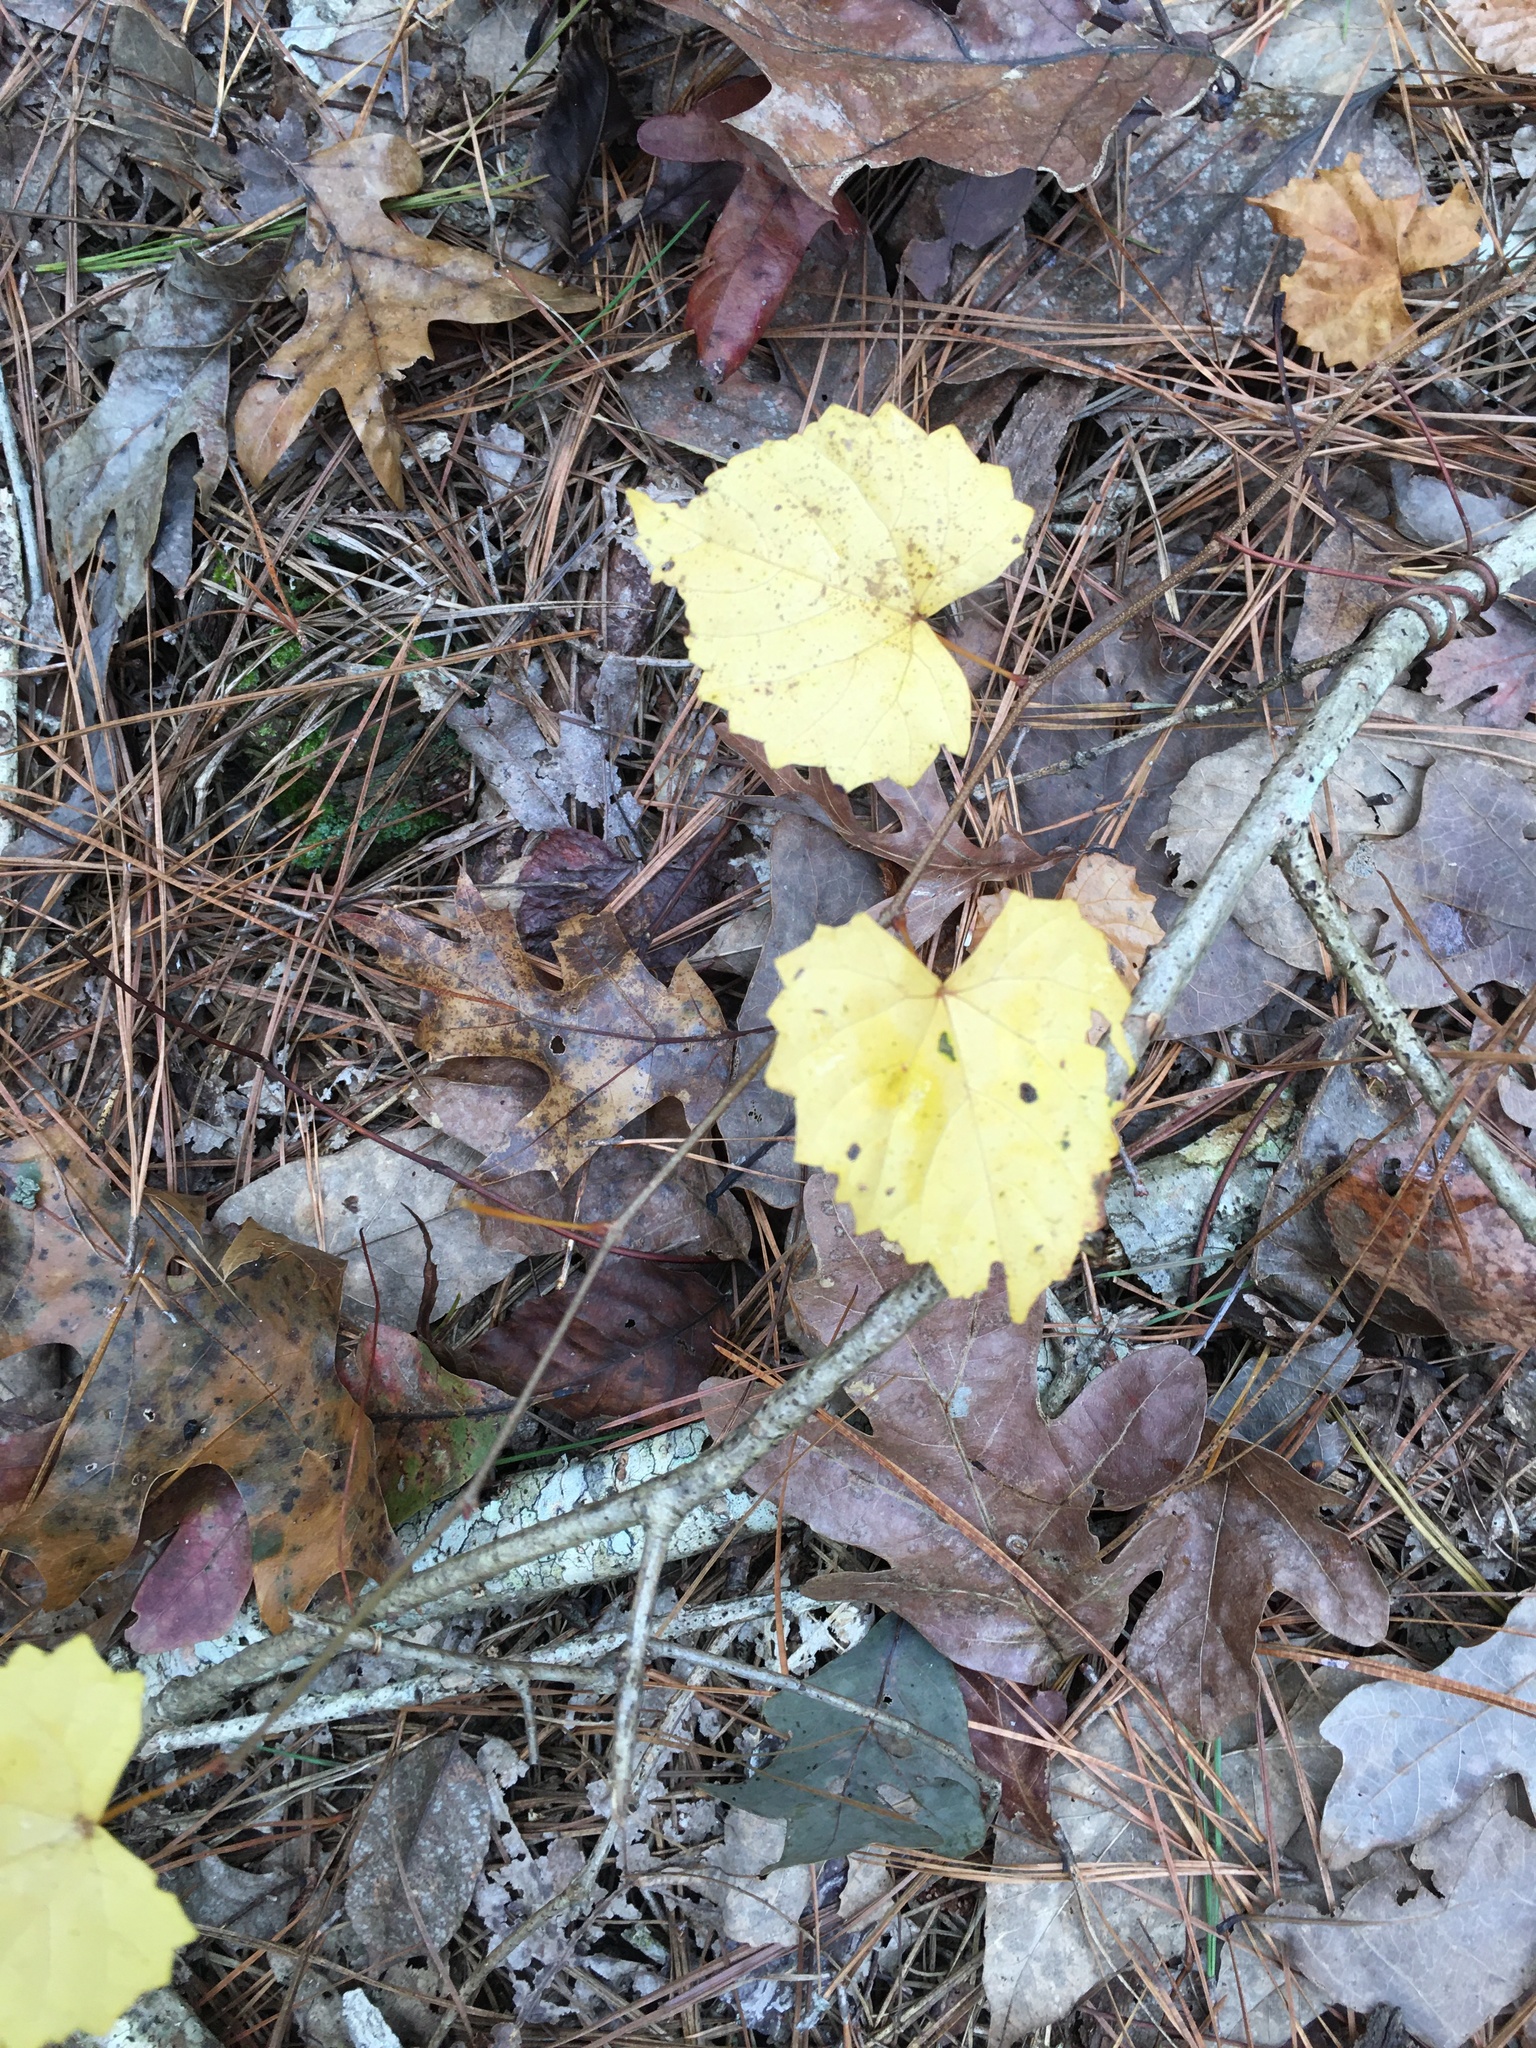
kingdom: Plantae
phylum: Tracheophyta
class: Magnoliopsida
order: Vitales
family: Vitaceae
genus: Vitis
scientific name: Vitis rotundifolia
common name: Muscadine grape
